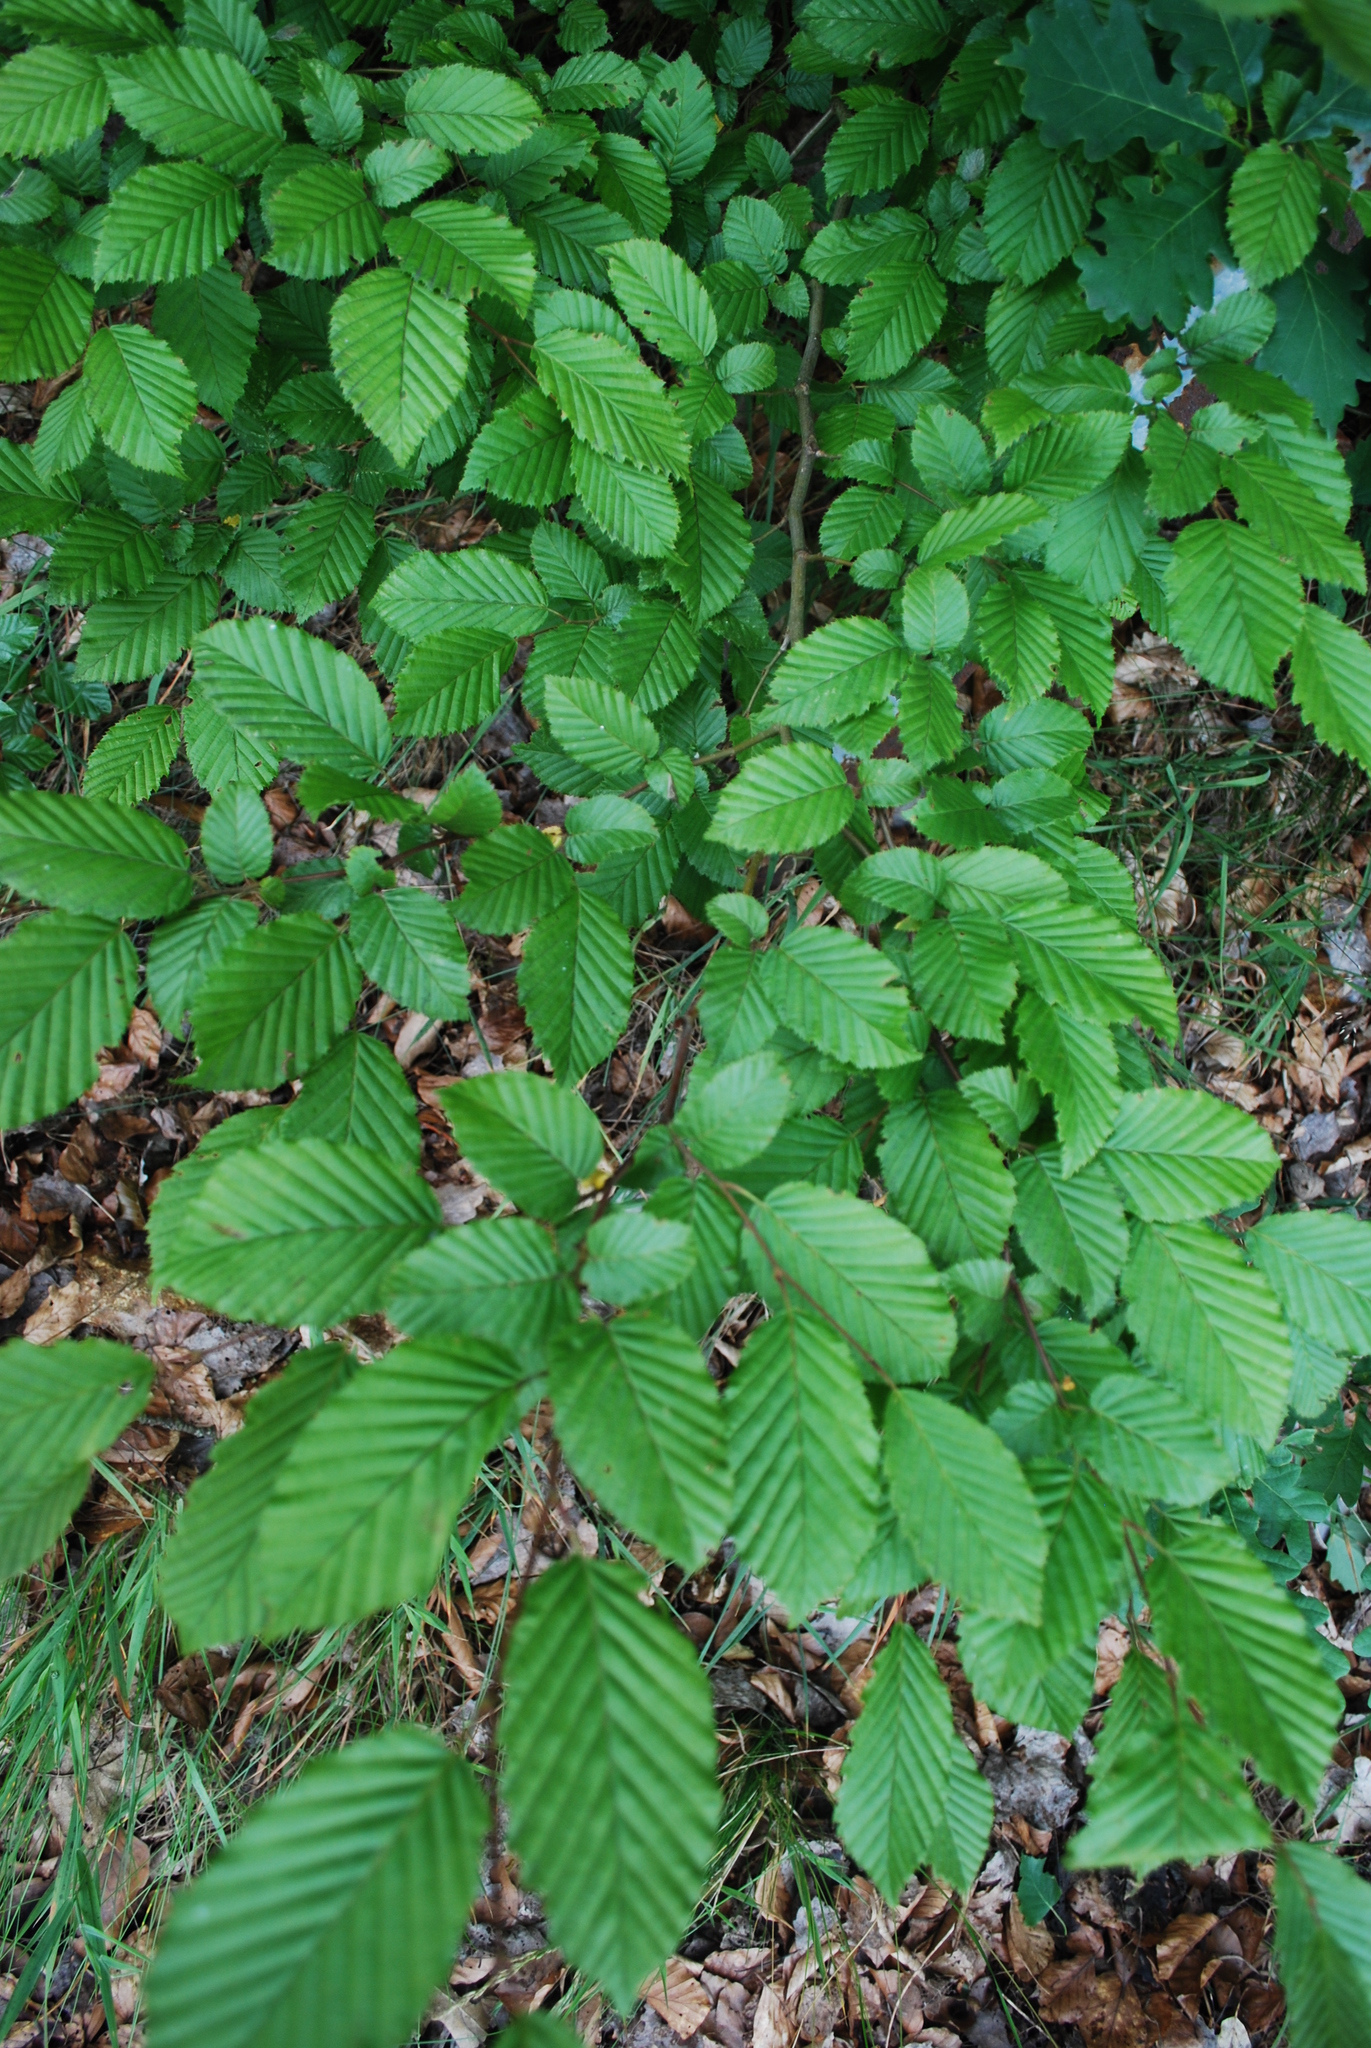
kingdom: Plantae
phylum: Tracheophyta
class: Magnoliopsida
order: Fagales
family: Betulaceae
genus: Carpinus
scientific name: Carpinus betulus
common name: Hornbeam
